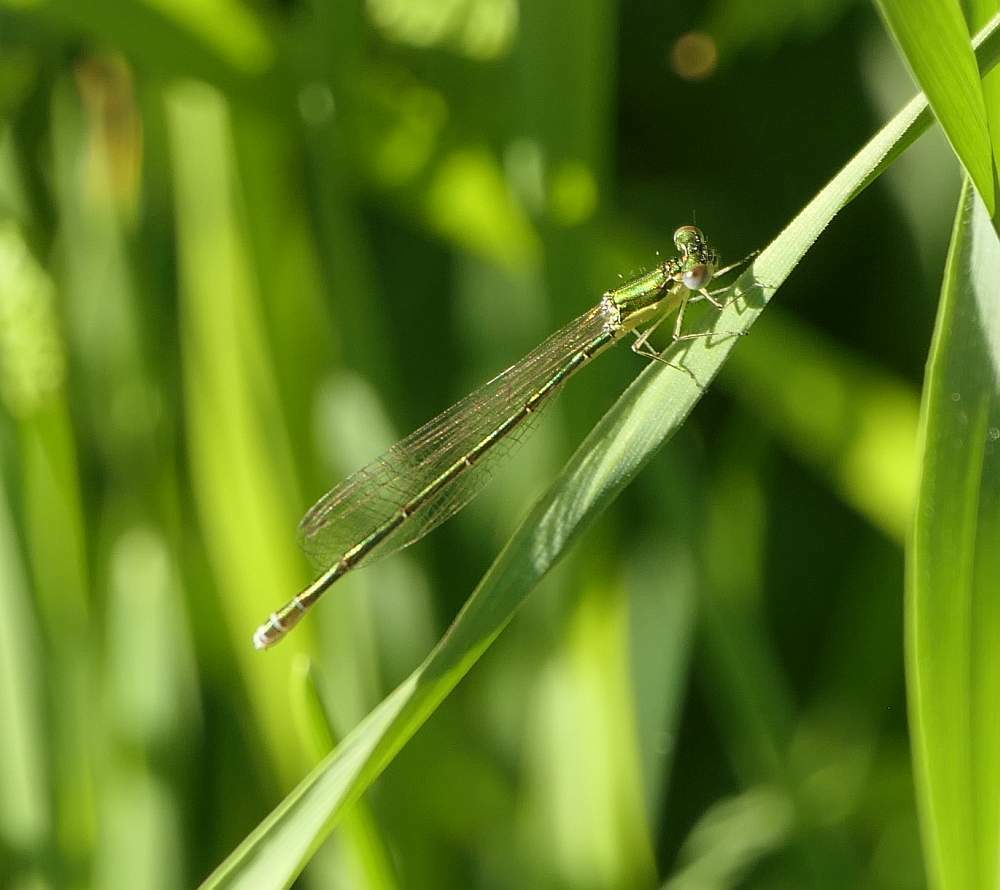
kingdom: Animalia
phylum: Arthropoda
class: Insecta
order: Odonata
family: Coenagrionidae
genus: Nehalennia
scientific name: Nehalennia irene
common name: Sedge sprite
